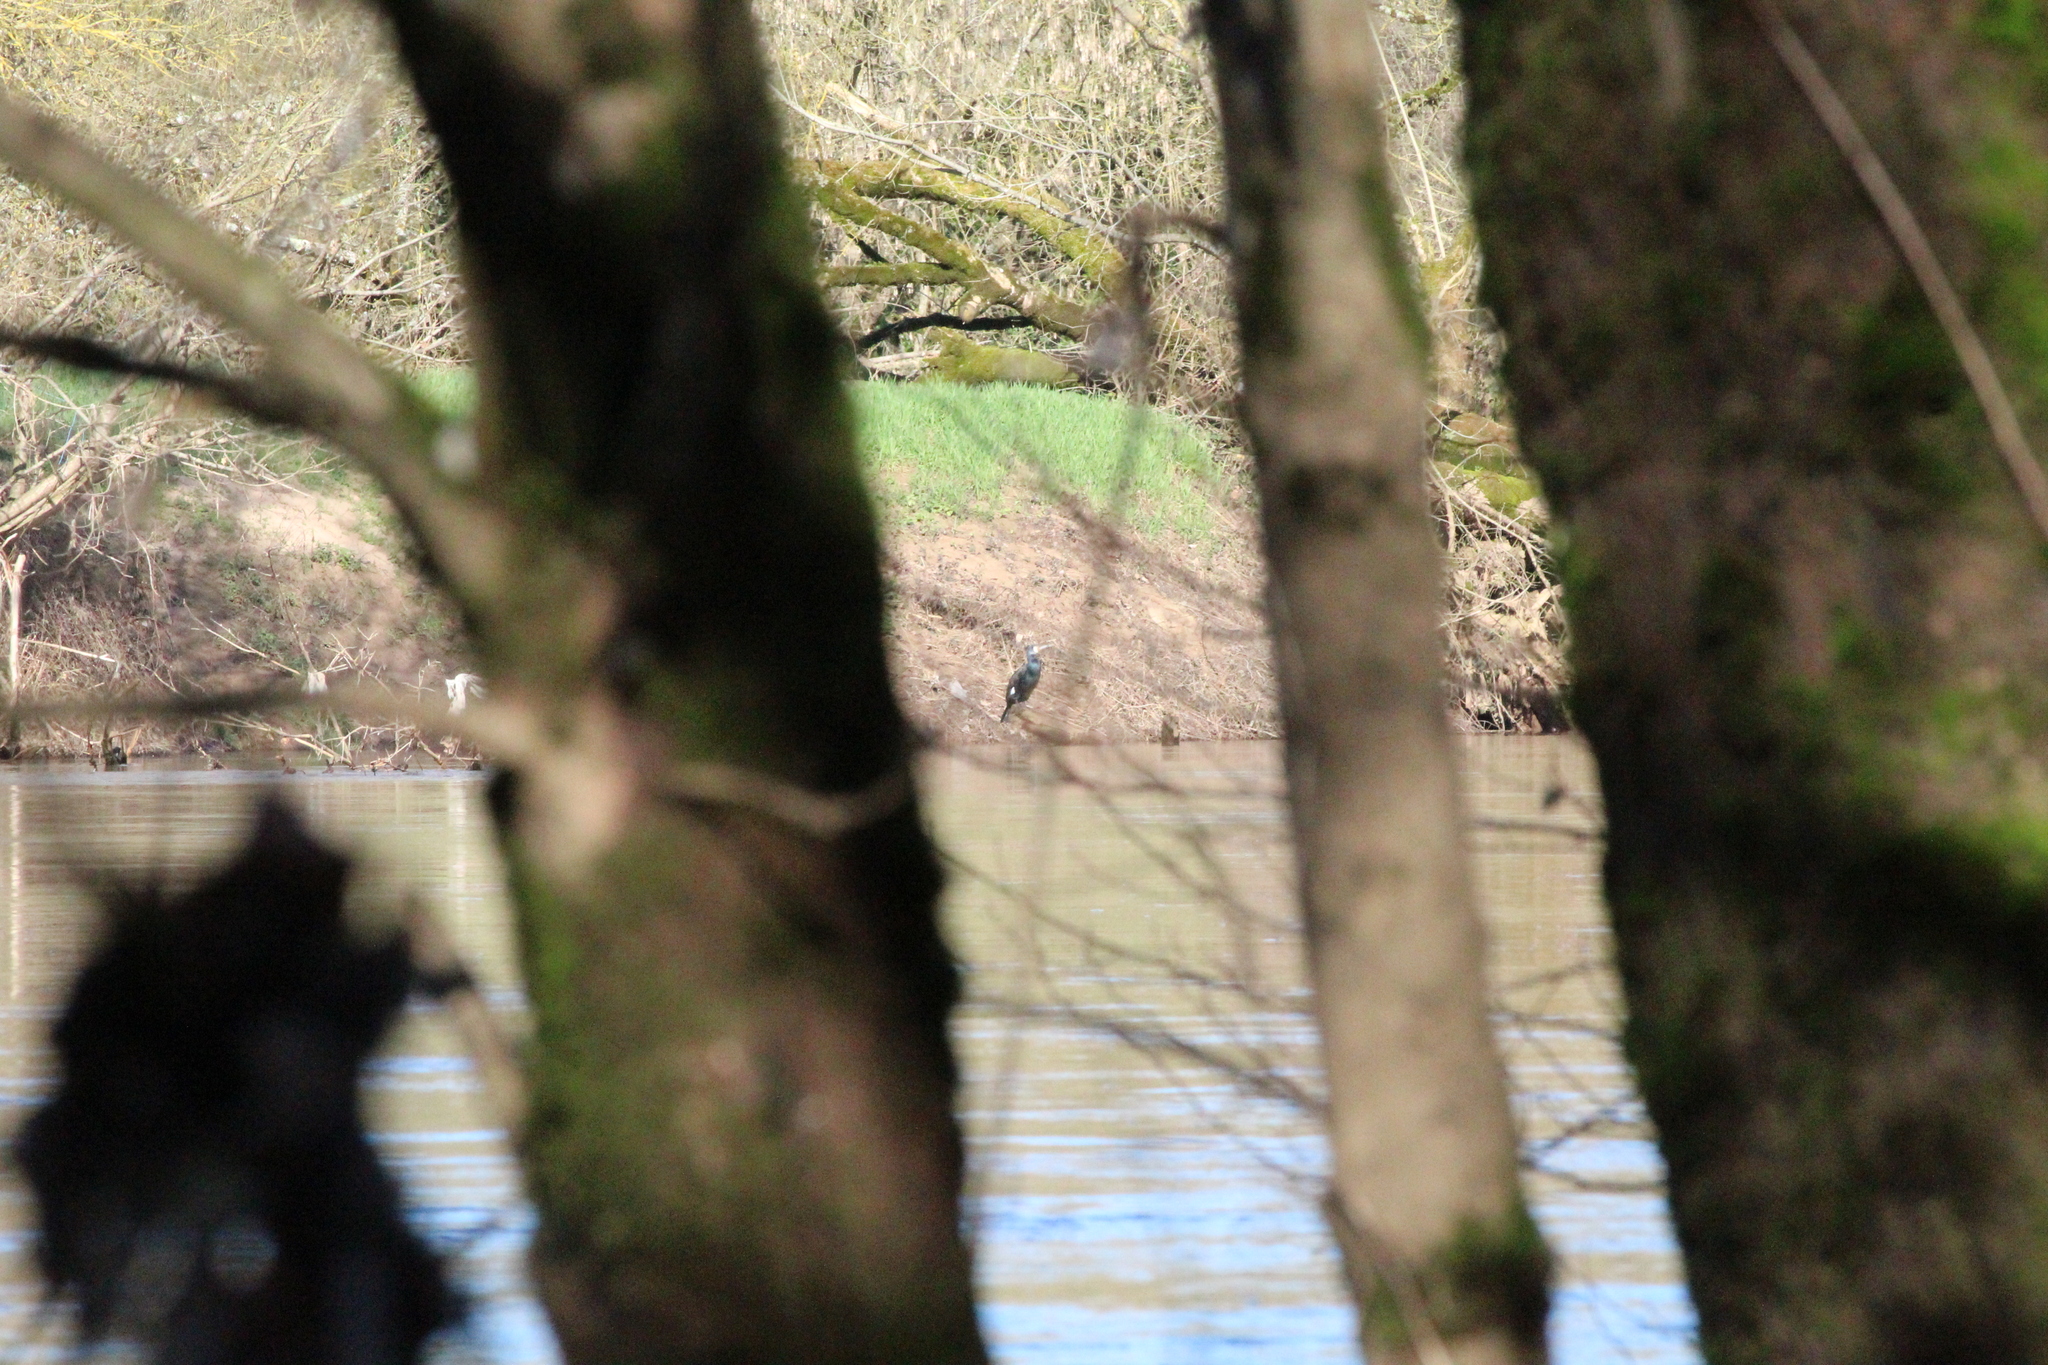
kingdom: Animalia
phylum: Chordata
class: Aves
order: Suliformes
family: Phalacrocoracidae
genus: Phalacrocorax
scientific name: Phalacrocorax carbo
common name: Great cormorant
